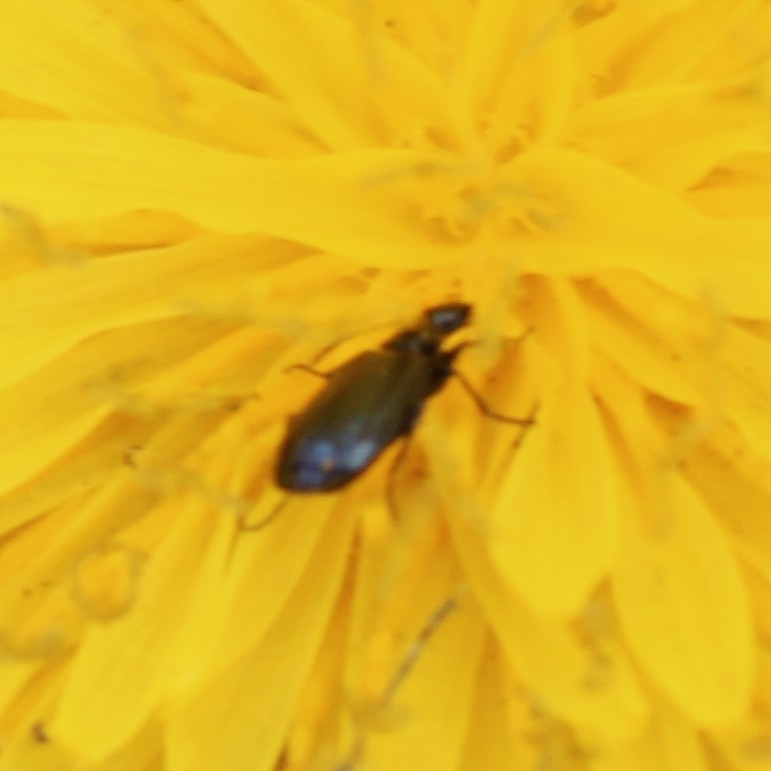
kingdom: Animalia
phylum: Arthropoda
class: Insecta
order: Coleoptera
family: Carabidae
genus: Lebia
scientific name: Lebia viridis
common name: Flower lebia beetle
